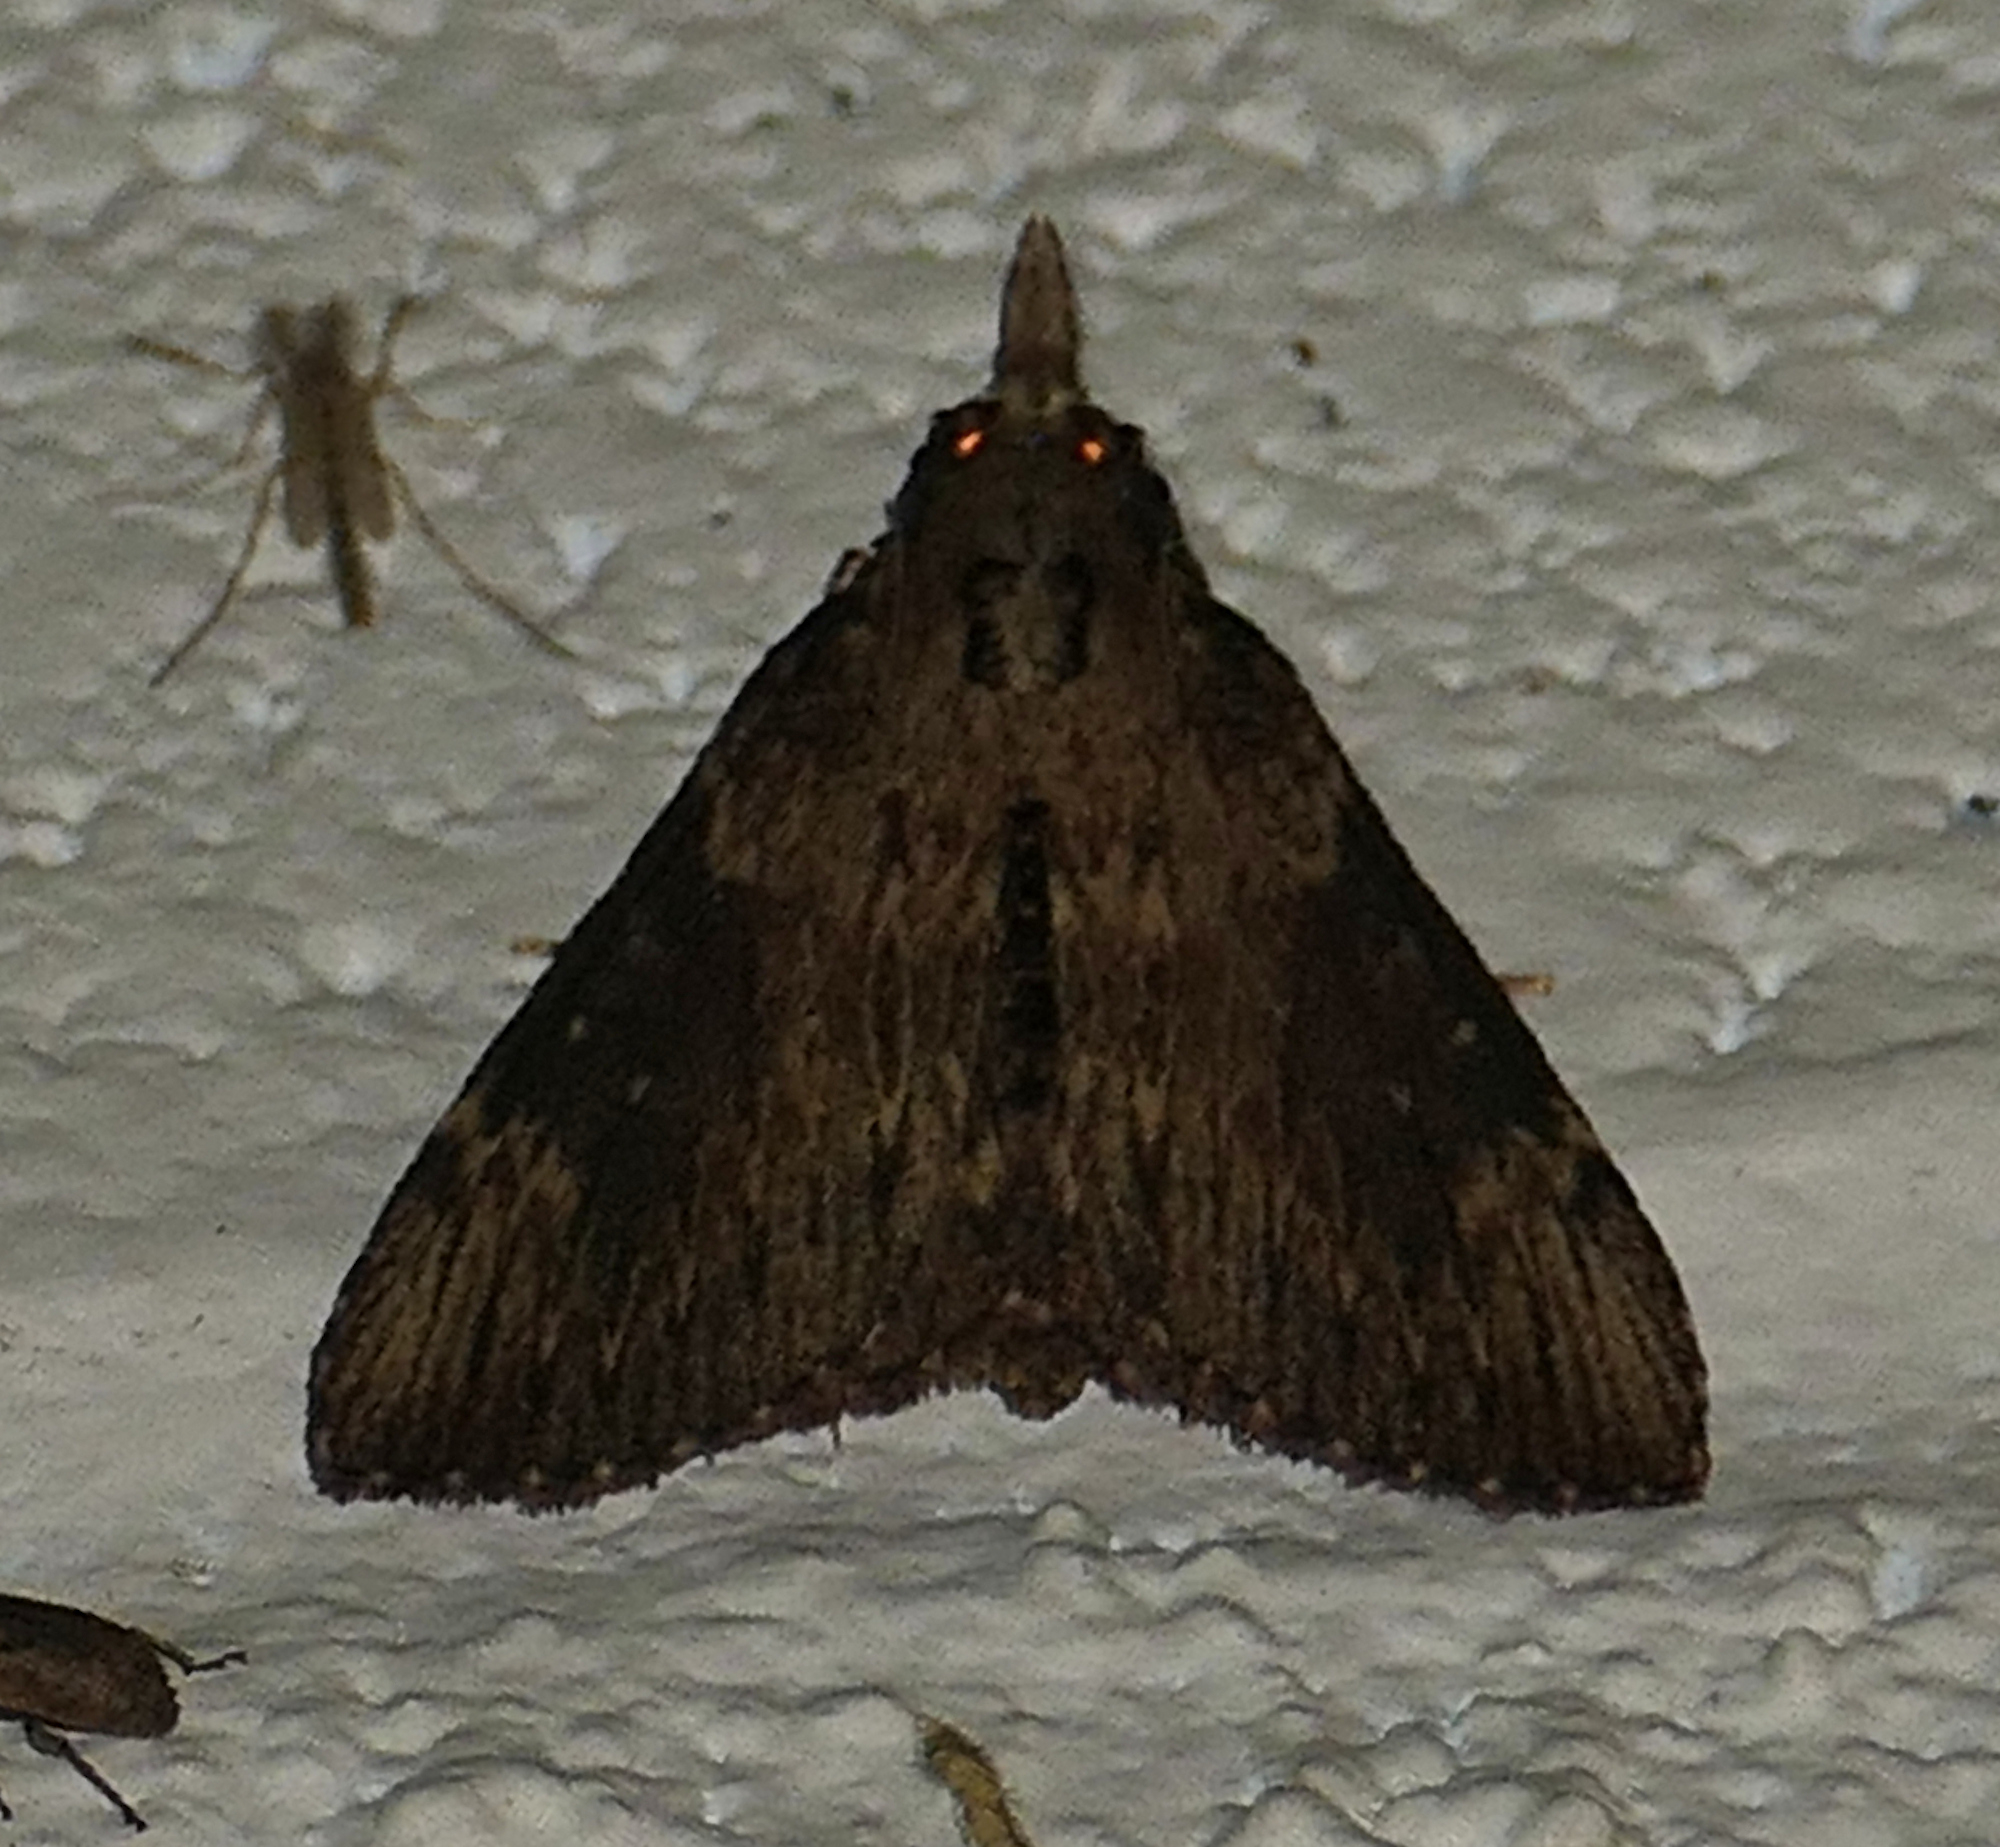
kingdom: Animalia
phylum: Arthropoda
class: Insecta
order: Lepidoptera
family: Pyralidae
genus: Omphalocera
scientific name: Omphalocera cariosa
